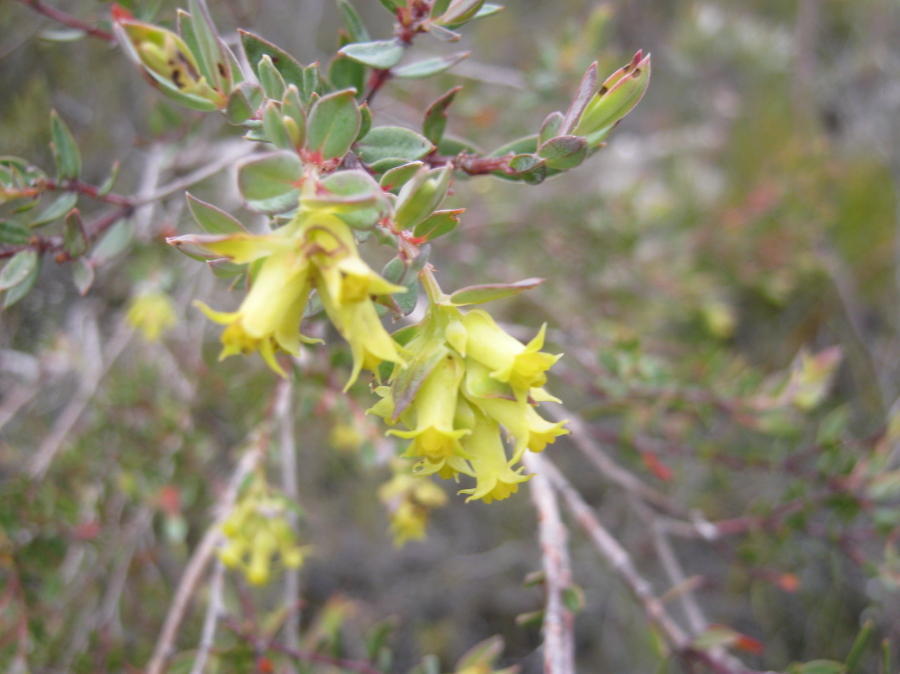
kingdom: Plantae
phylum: Tracheophyta
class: Magnoliopsida
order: Myrtales
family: Penaeaceae
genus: Penaea
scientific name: Penaea acutifolia
